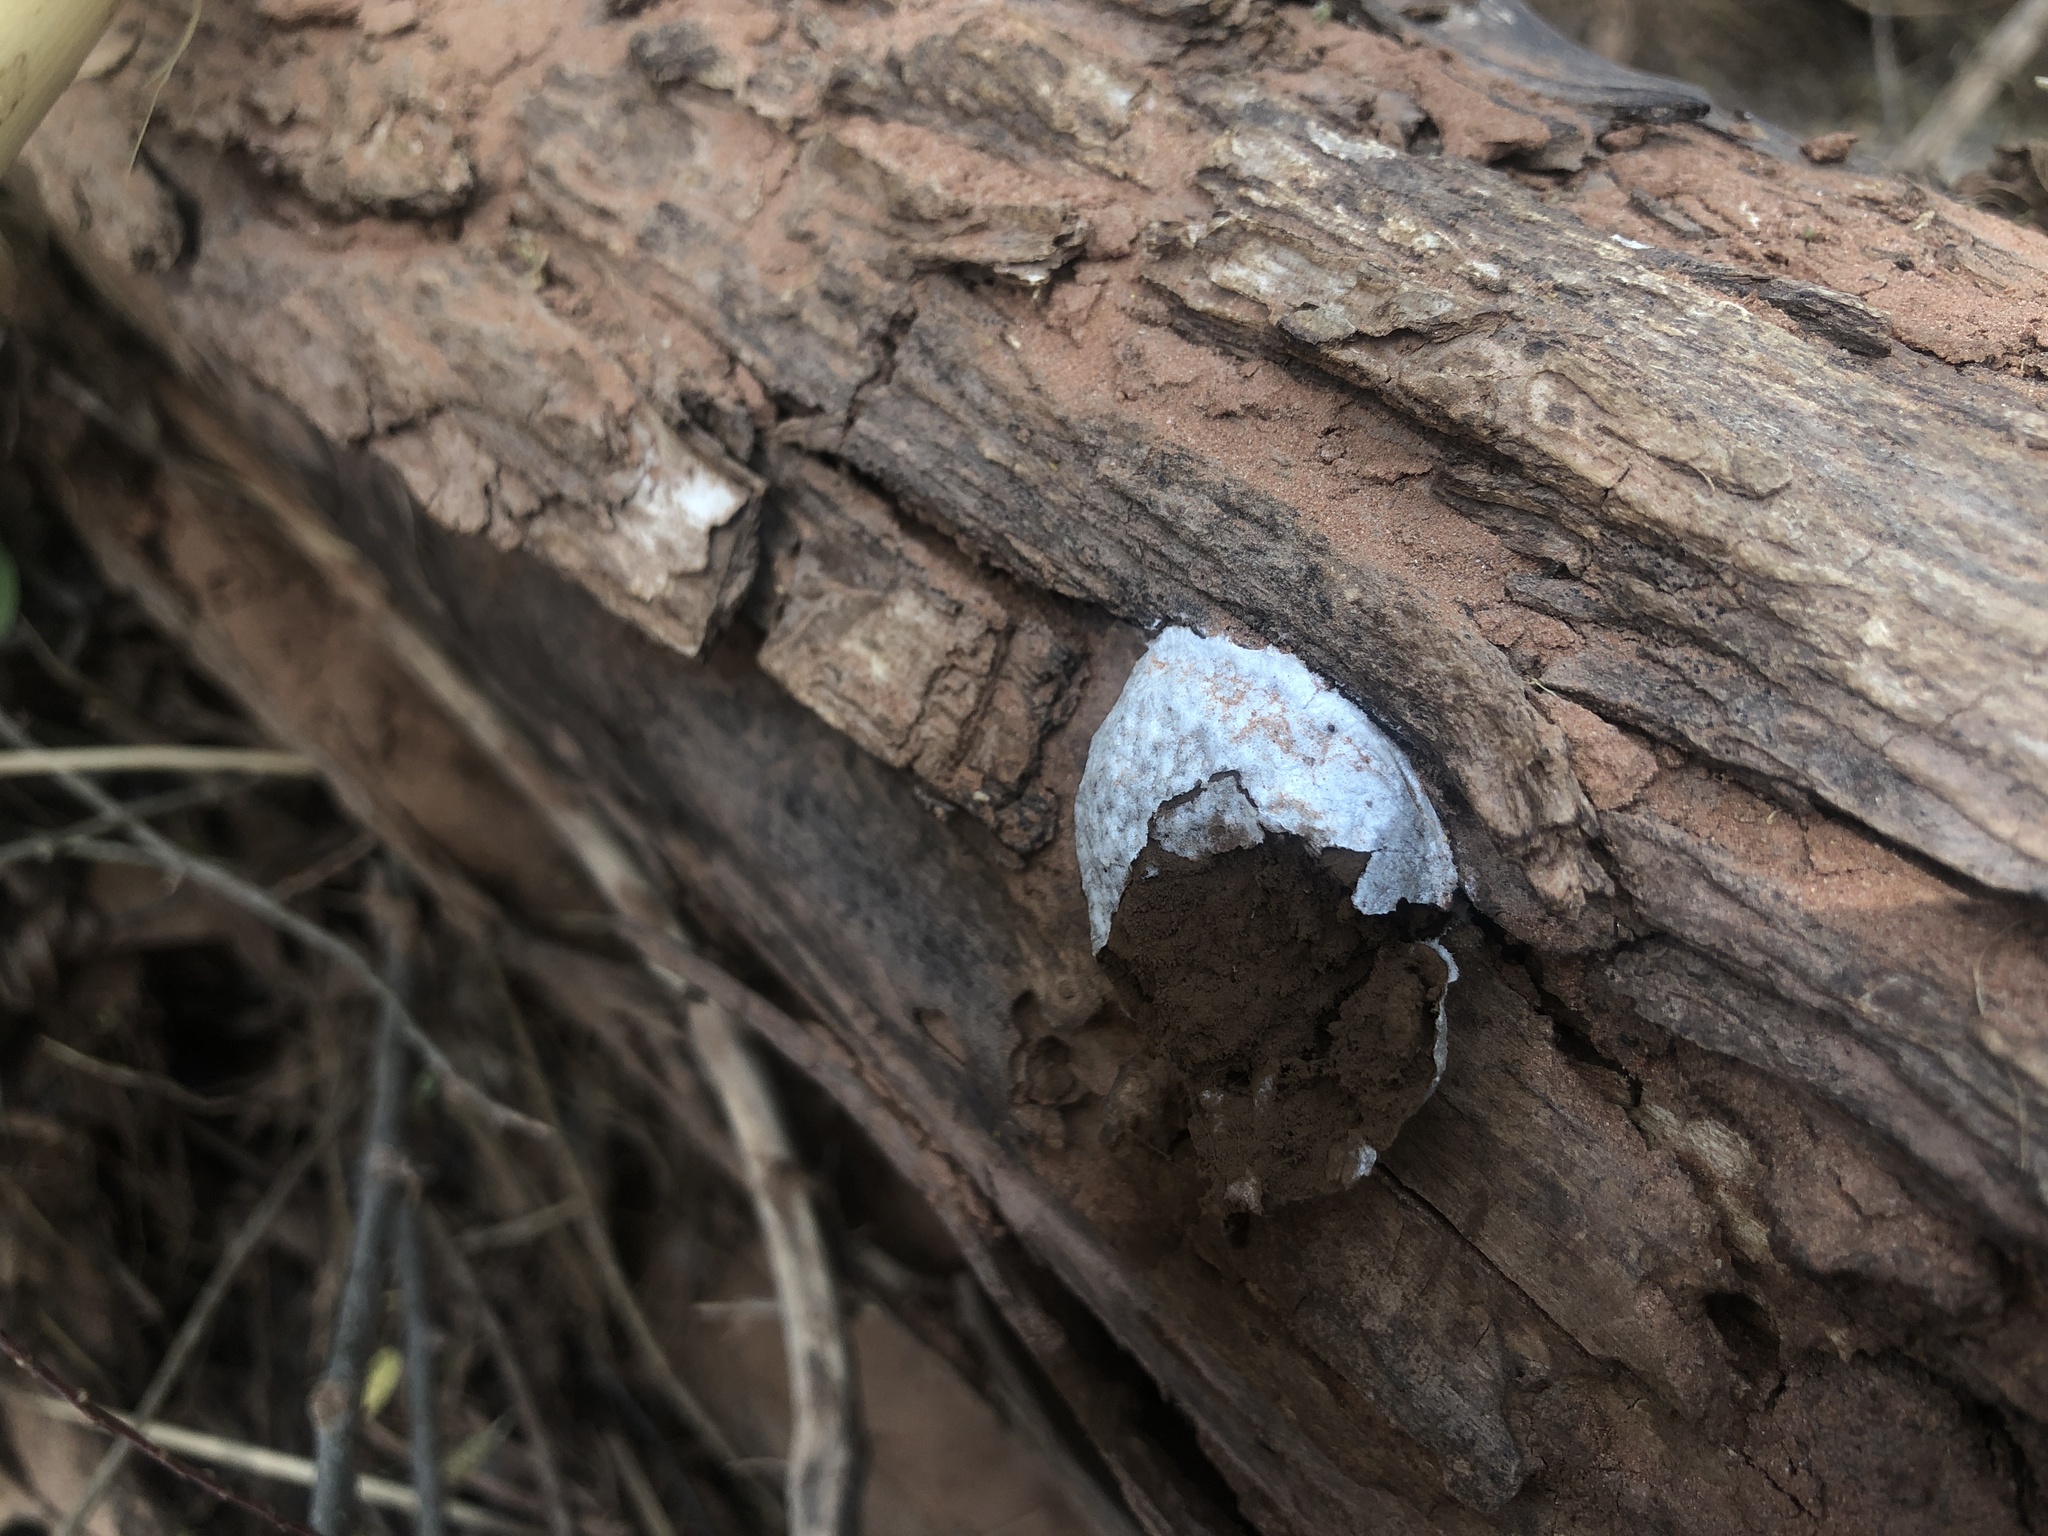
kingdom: Protozoa
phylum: Mycetozoa
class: Myxomycetes
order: Cribrariales
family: Tubiferaceae
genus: Reticularia
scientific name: Reticularia lycoperdon
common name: False puffball
